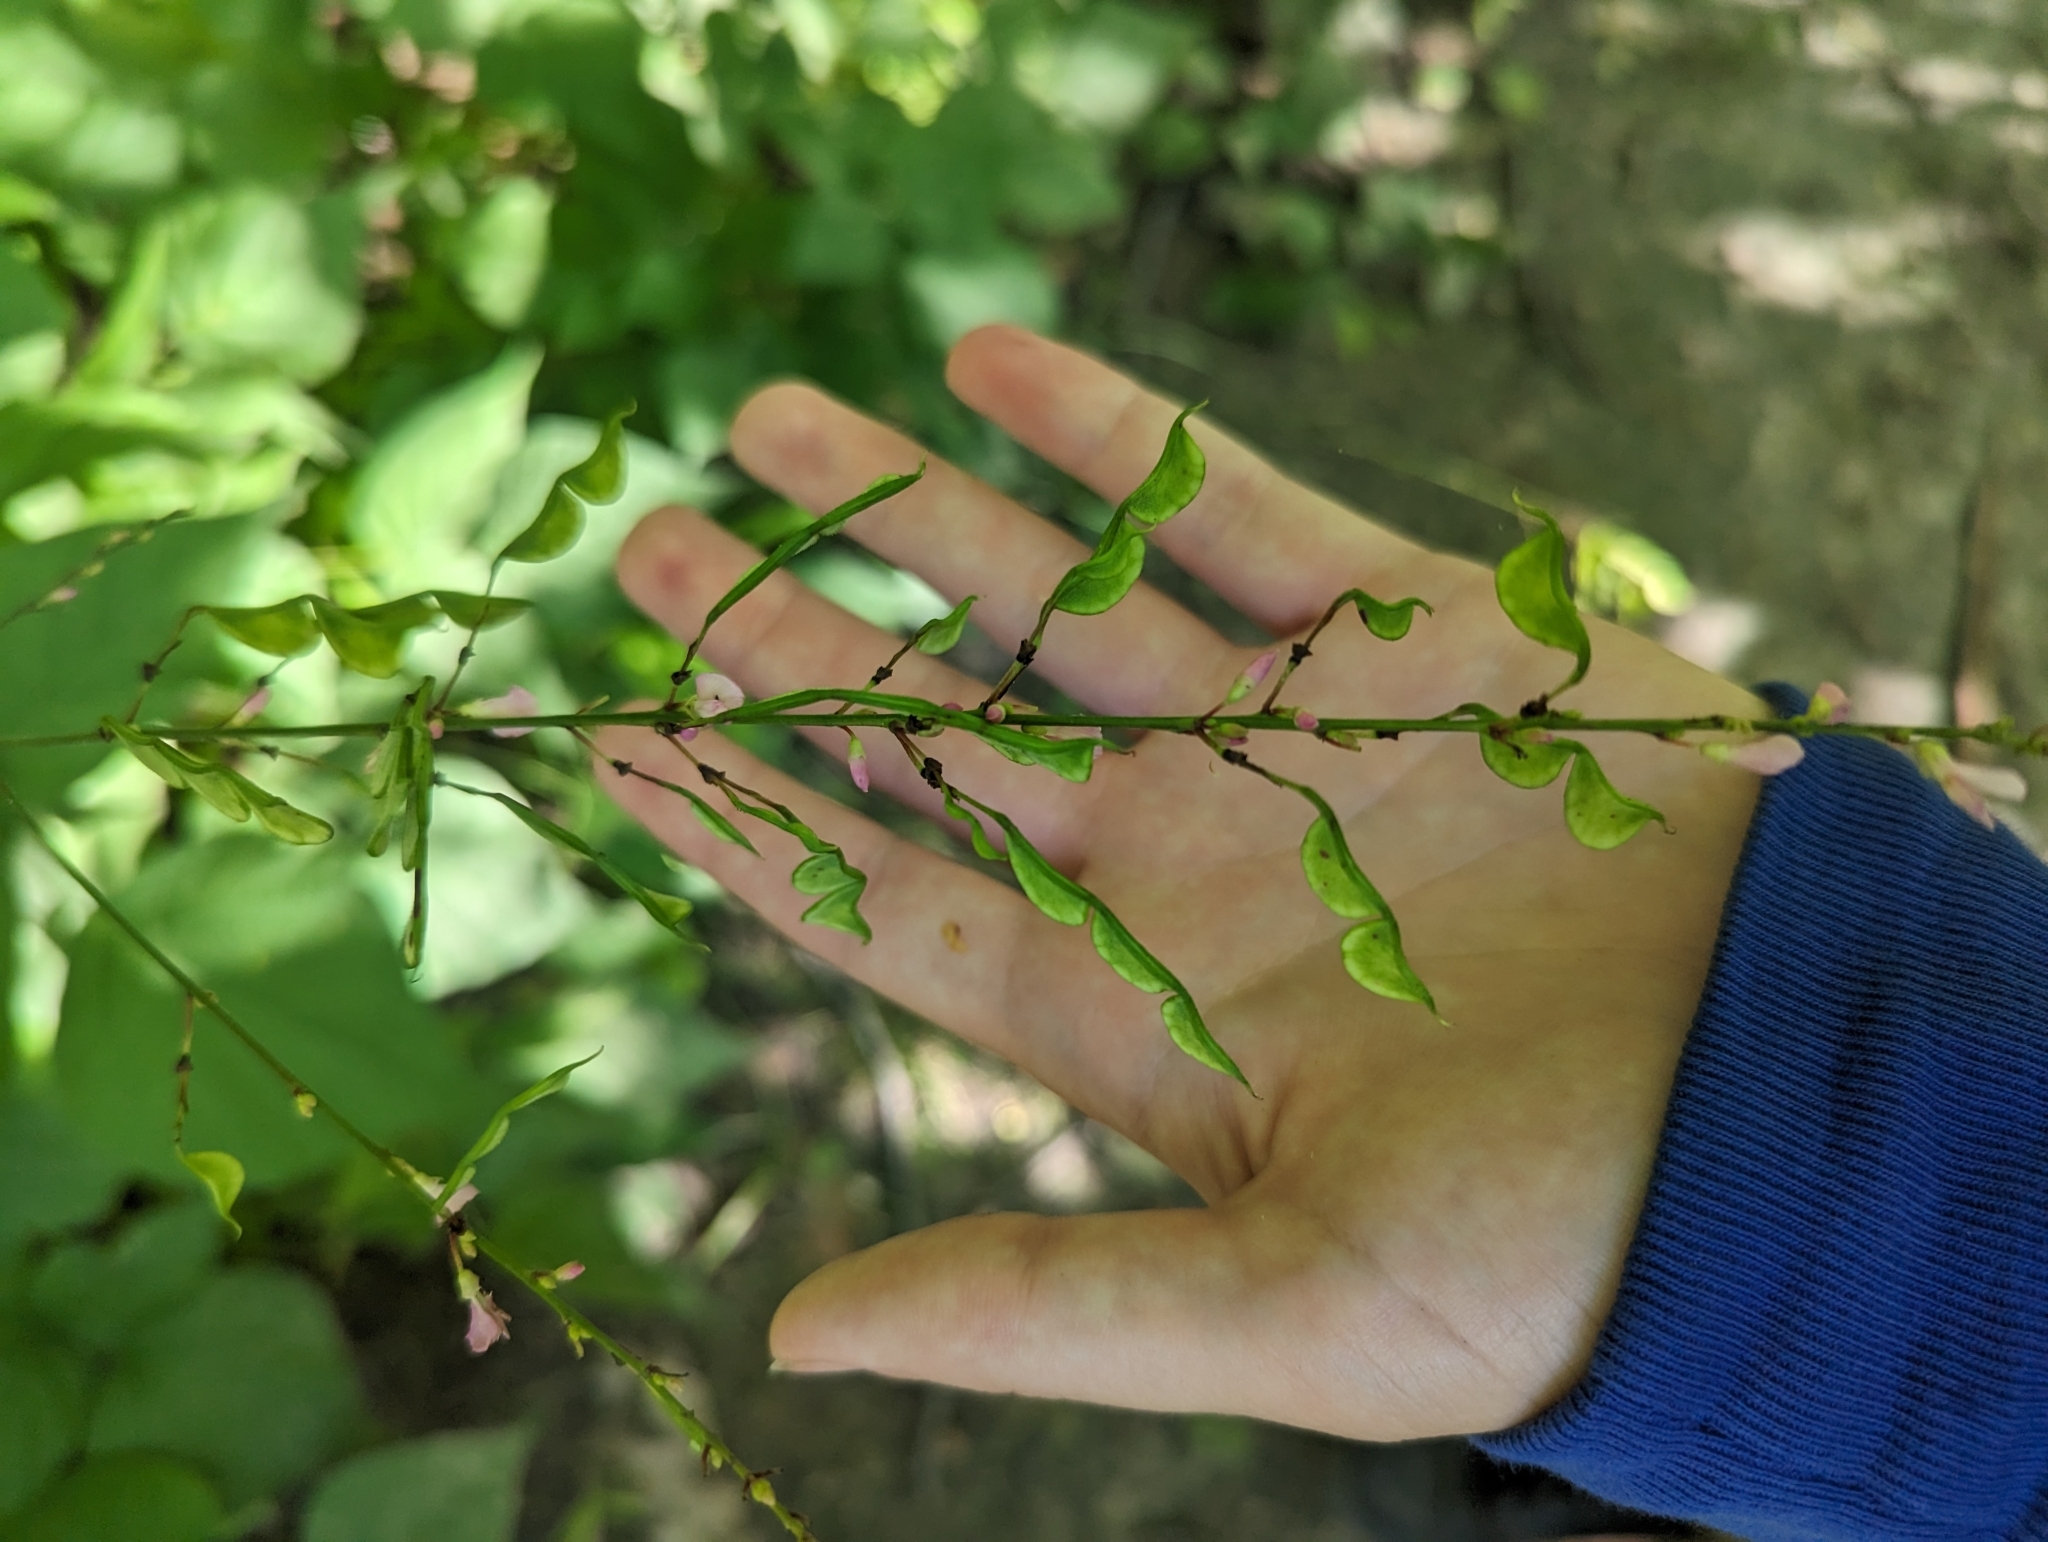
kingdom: Plantae
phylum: Tracheophyta
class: Magnoliopsida
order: Fabales
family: Fabaceae
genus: Hylodesmum
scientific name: Hylodesmum glutinosum
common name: Clustered-leaved tick-trefoil
